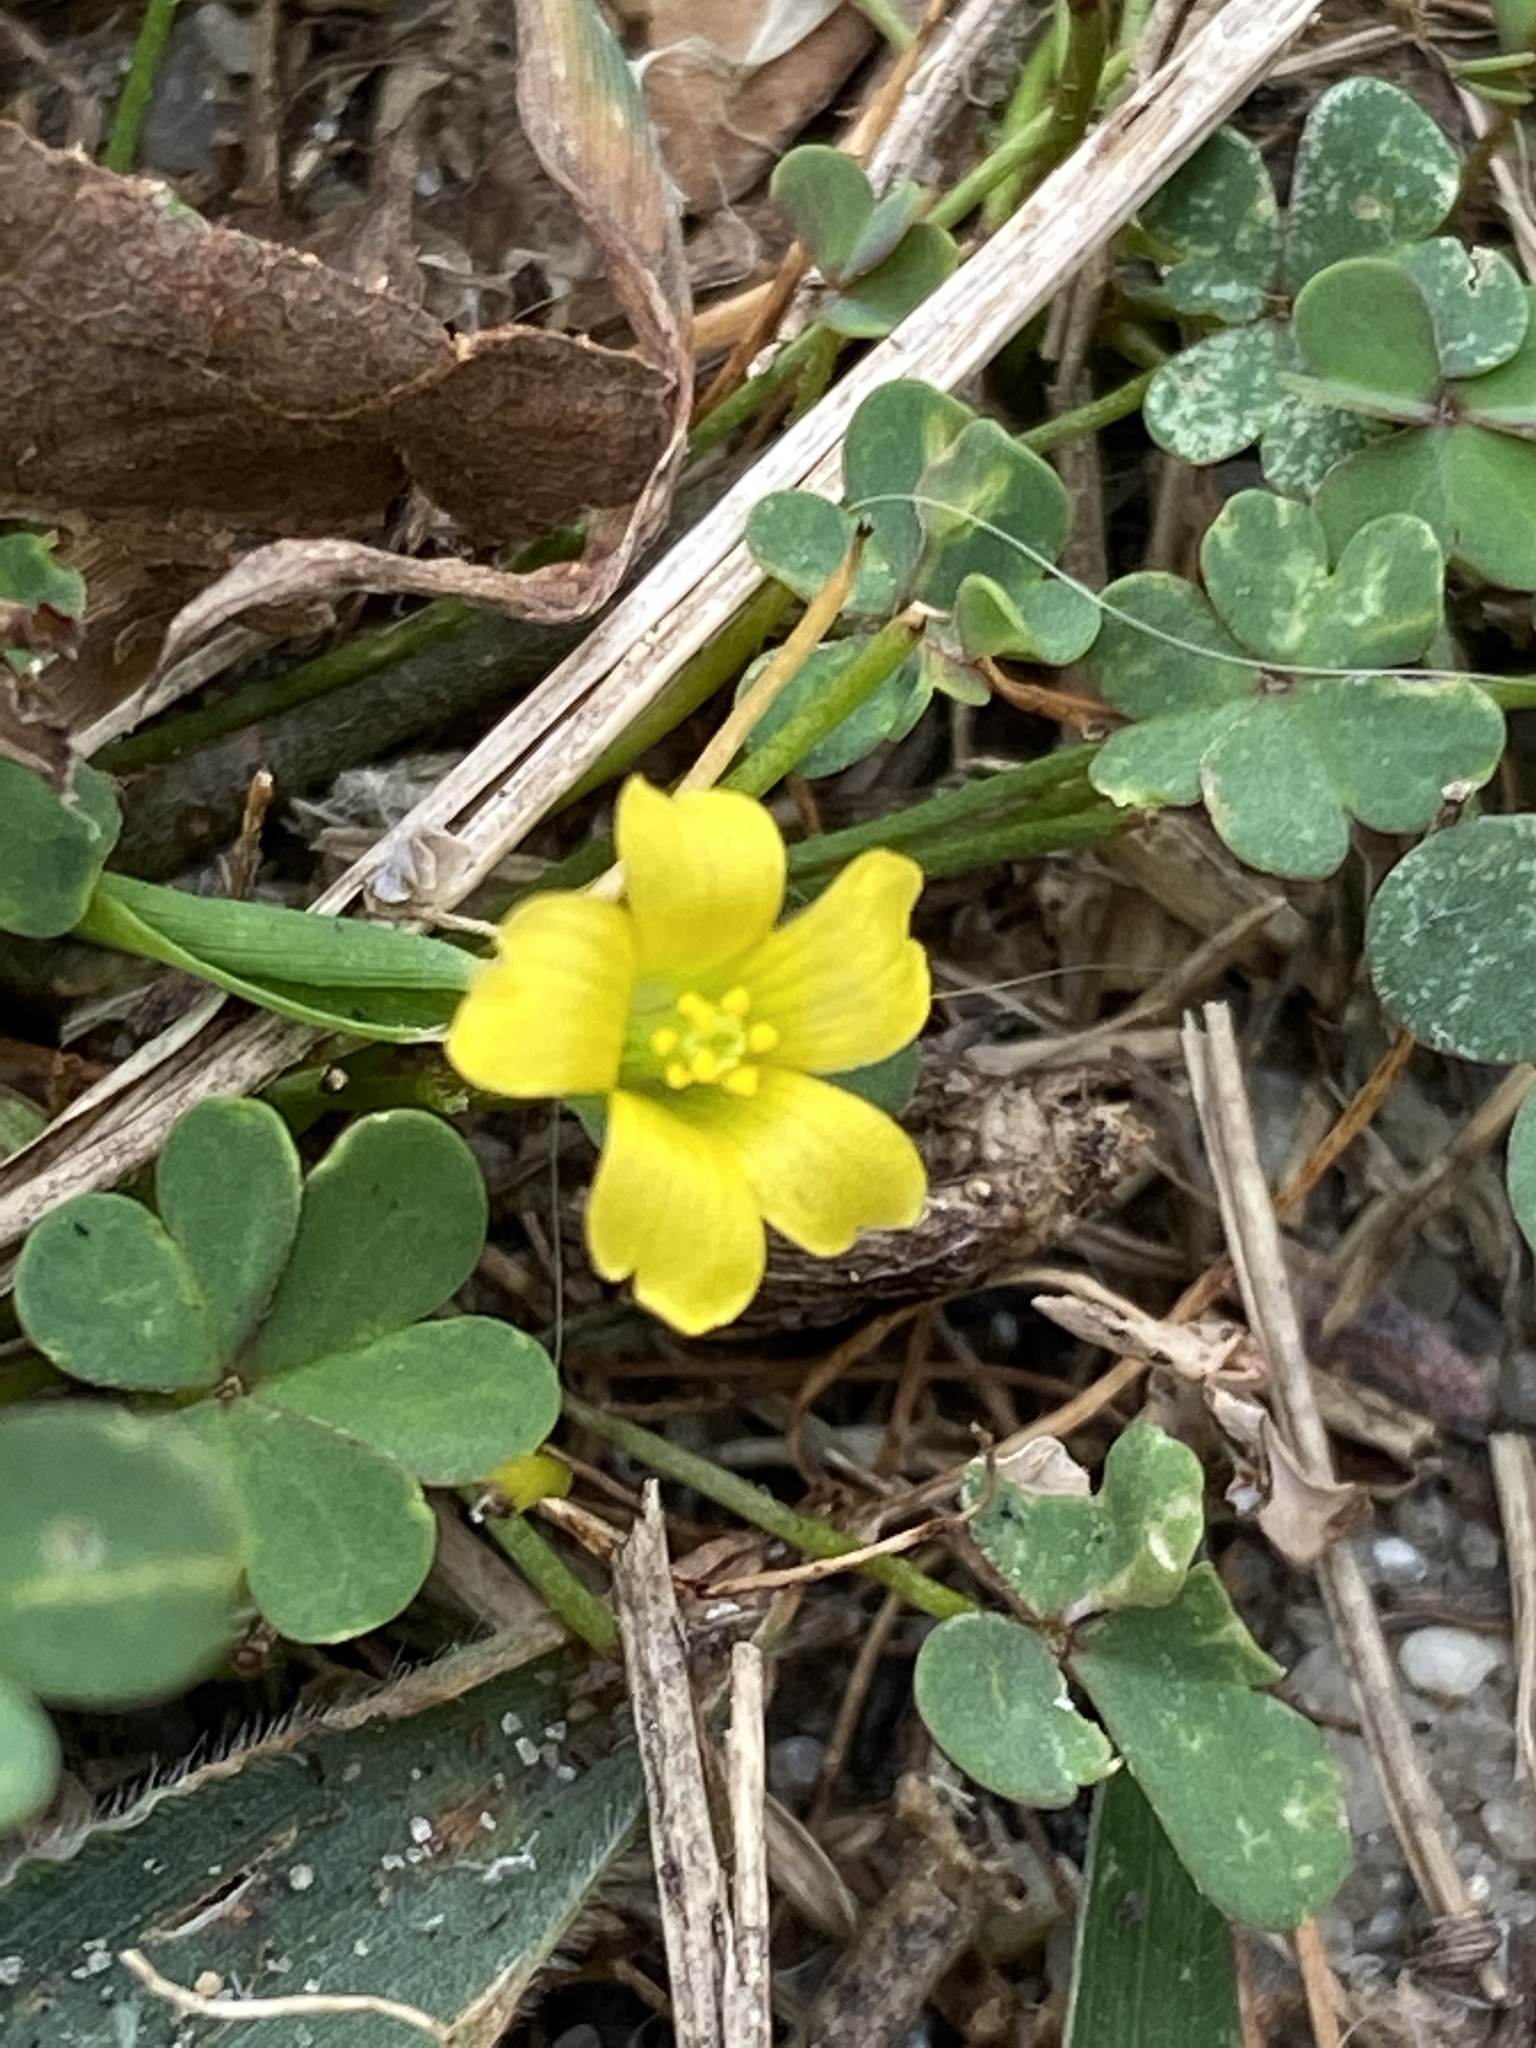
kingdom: Plantae
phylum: Tracheophyta
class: Magnoliopsida
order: Oxalidales
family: Oxalidaceae
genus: Oxalis
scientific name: Oxalis dillenii
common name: Sussex yellow-sorrel
